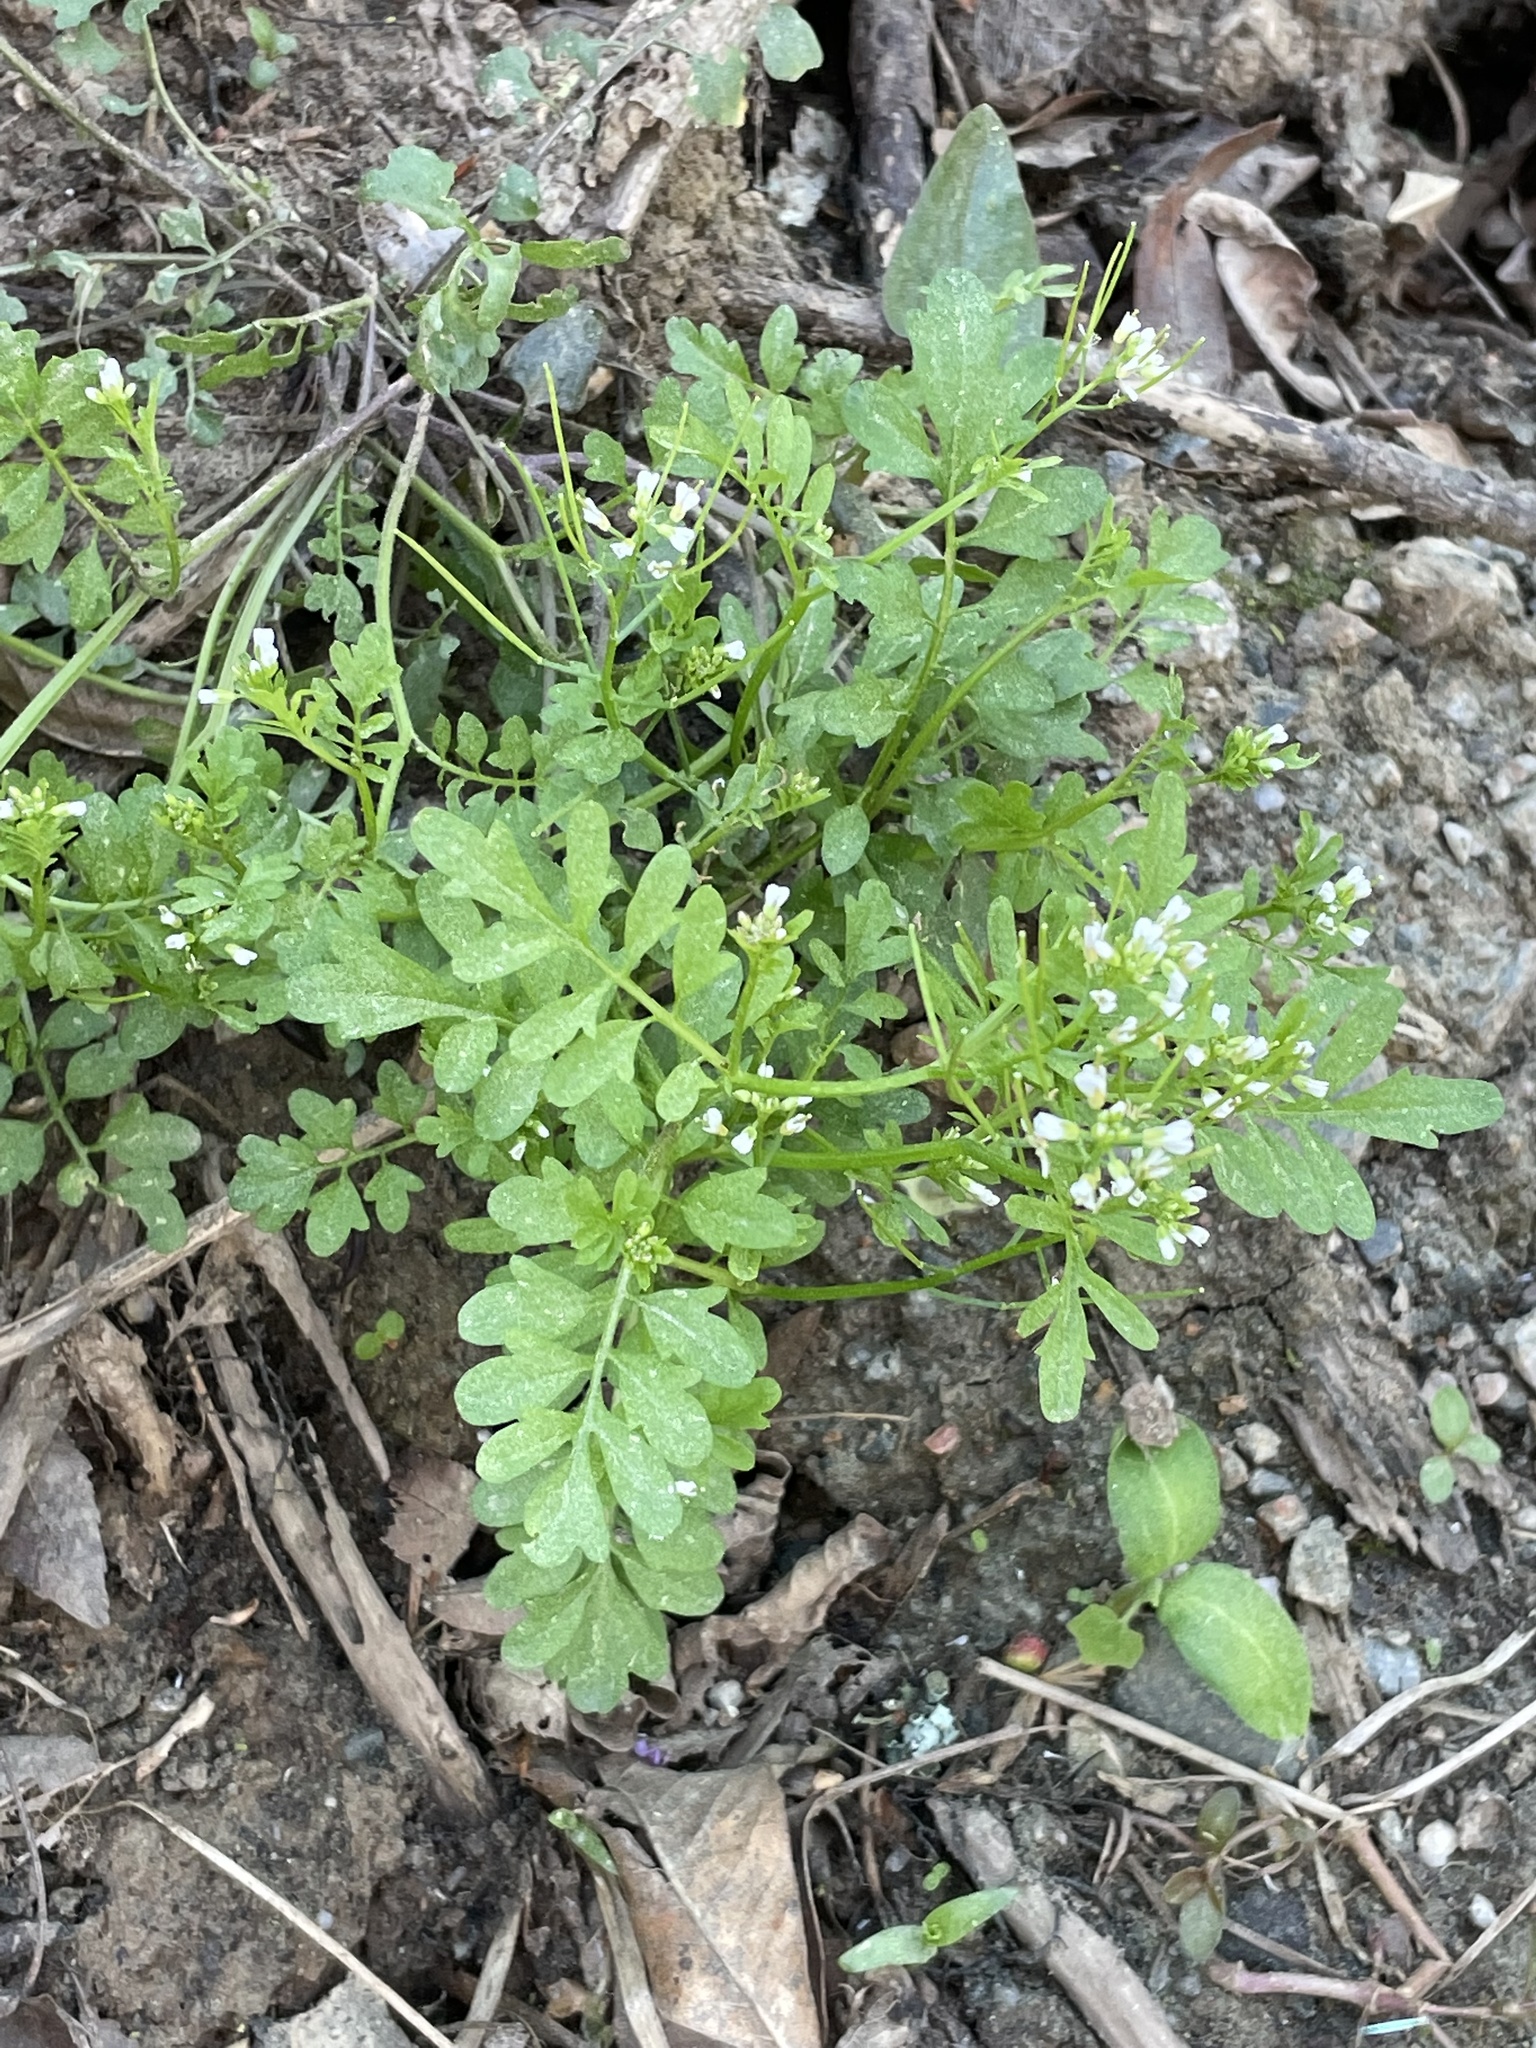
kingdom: Plantae
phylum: Tracheophyta
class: Magnoliopsida
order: Brassicales
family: Brassicaceae
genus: Cardamine
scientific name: Cardamine occulta
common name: Asian wavy bittercress
